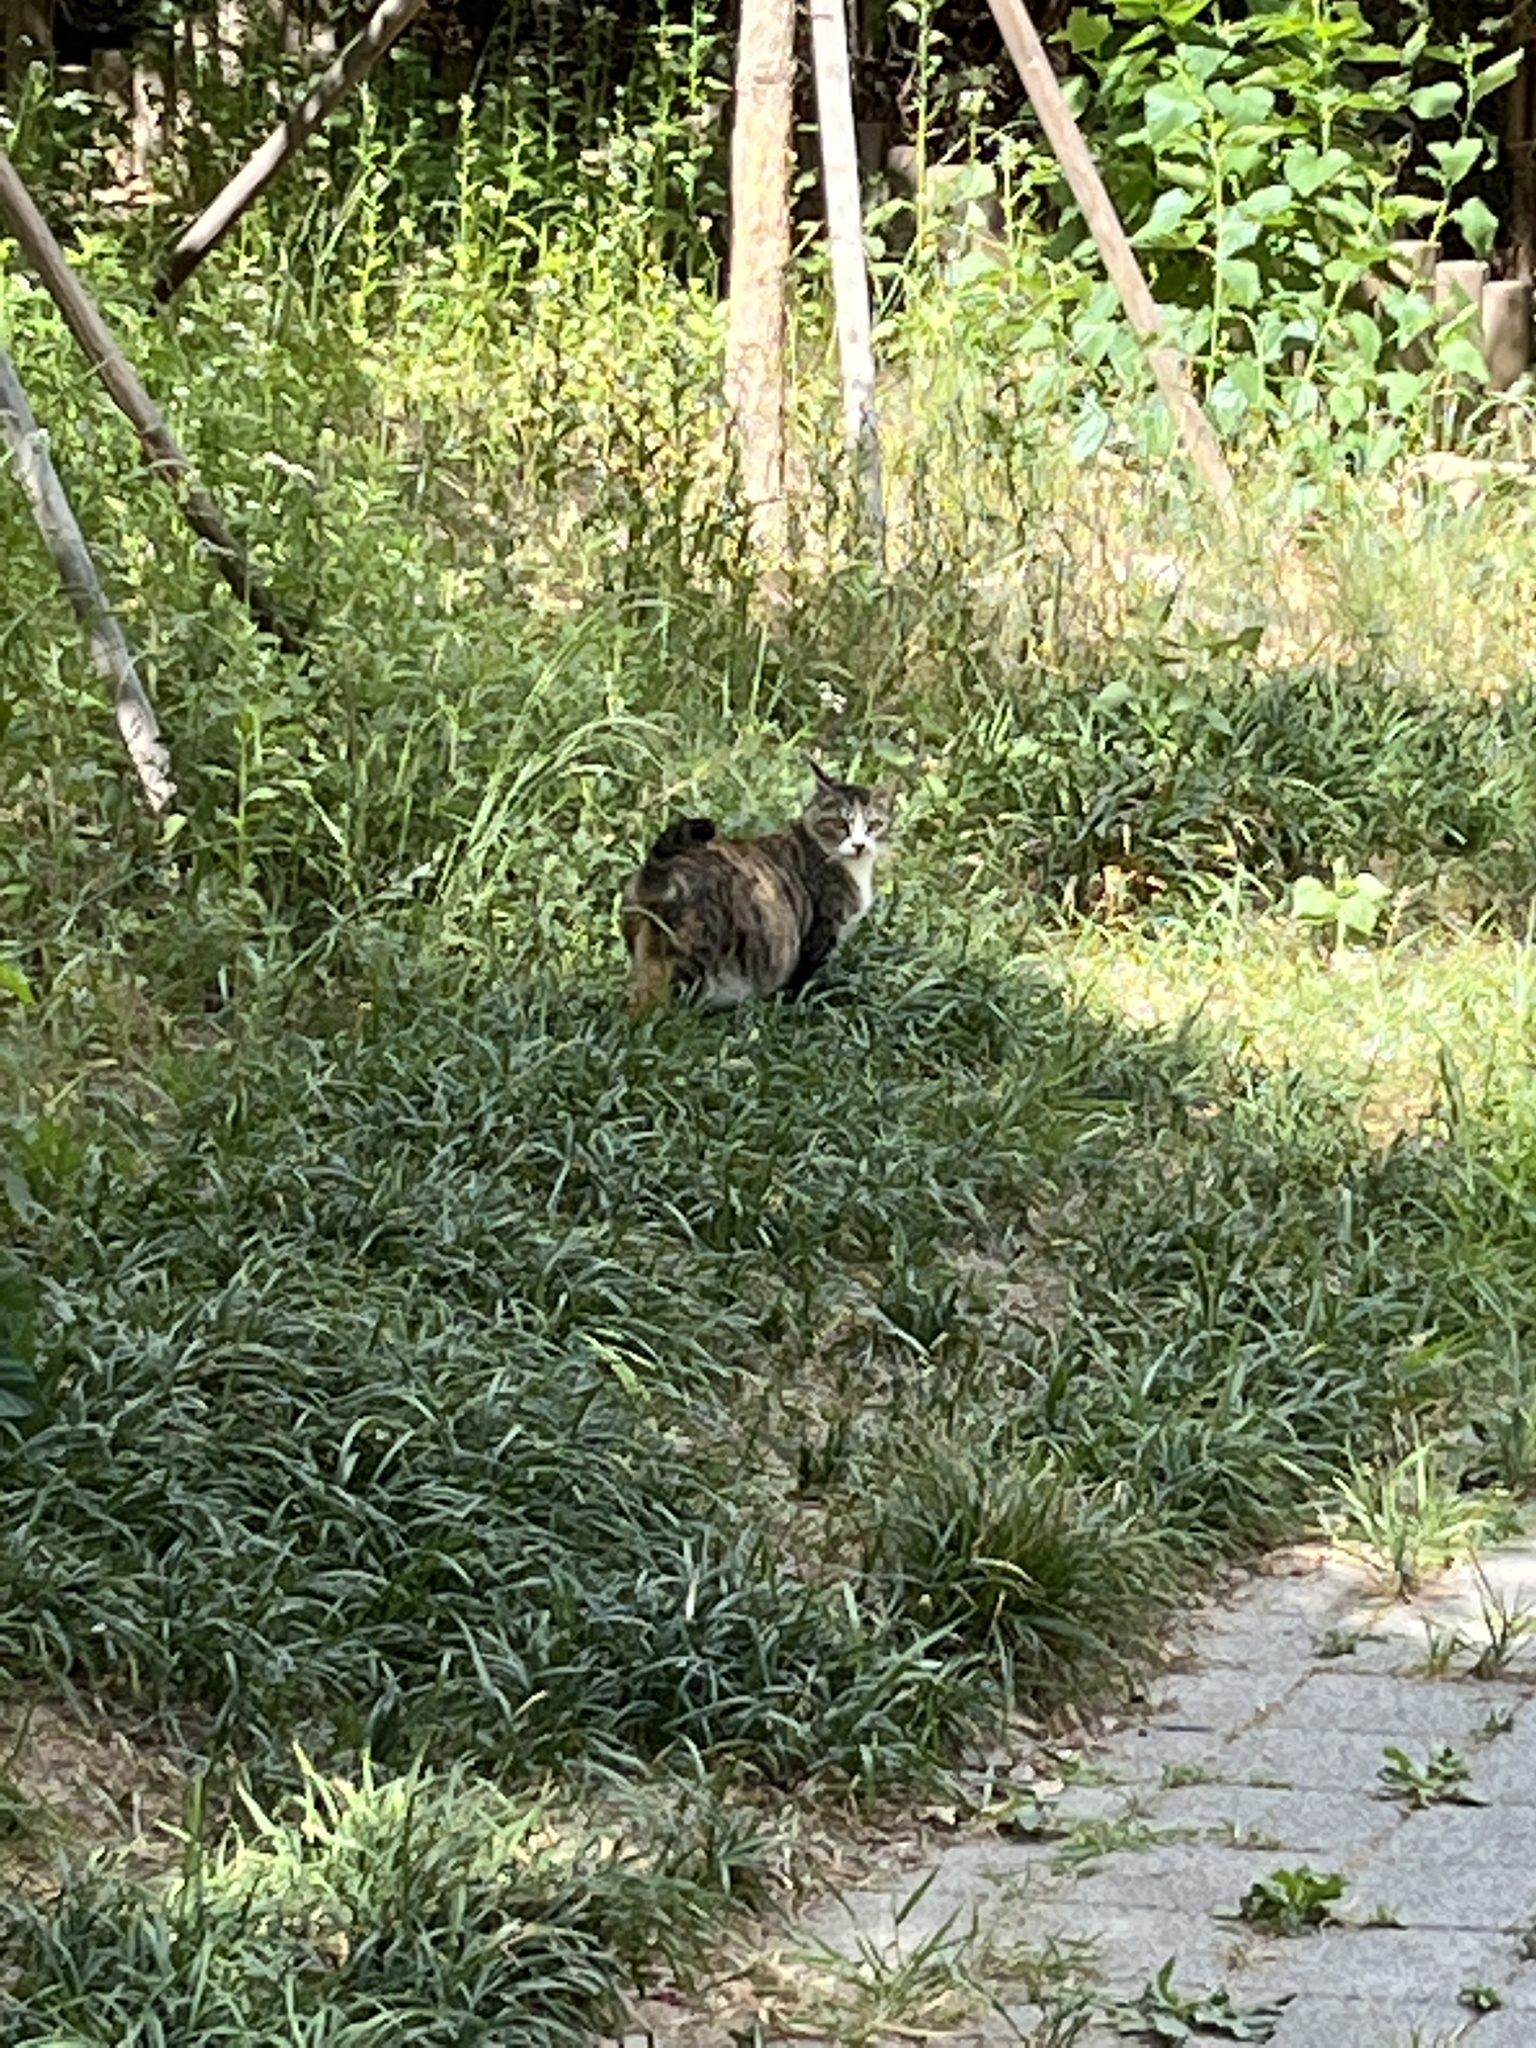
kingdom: Animalia
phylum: Chordata
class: Mammalia
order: Carnivora
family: Felidae
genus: Felis
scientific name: Felis catus
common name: Domestic cat
